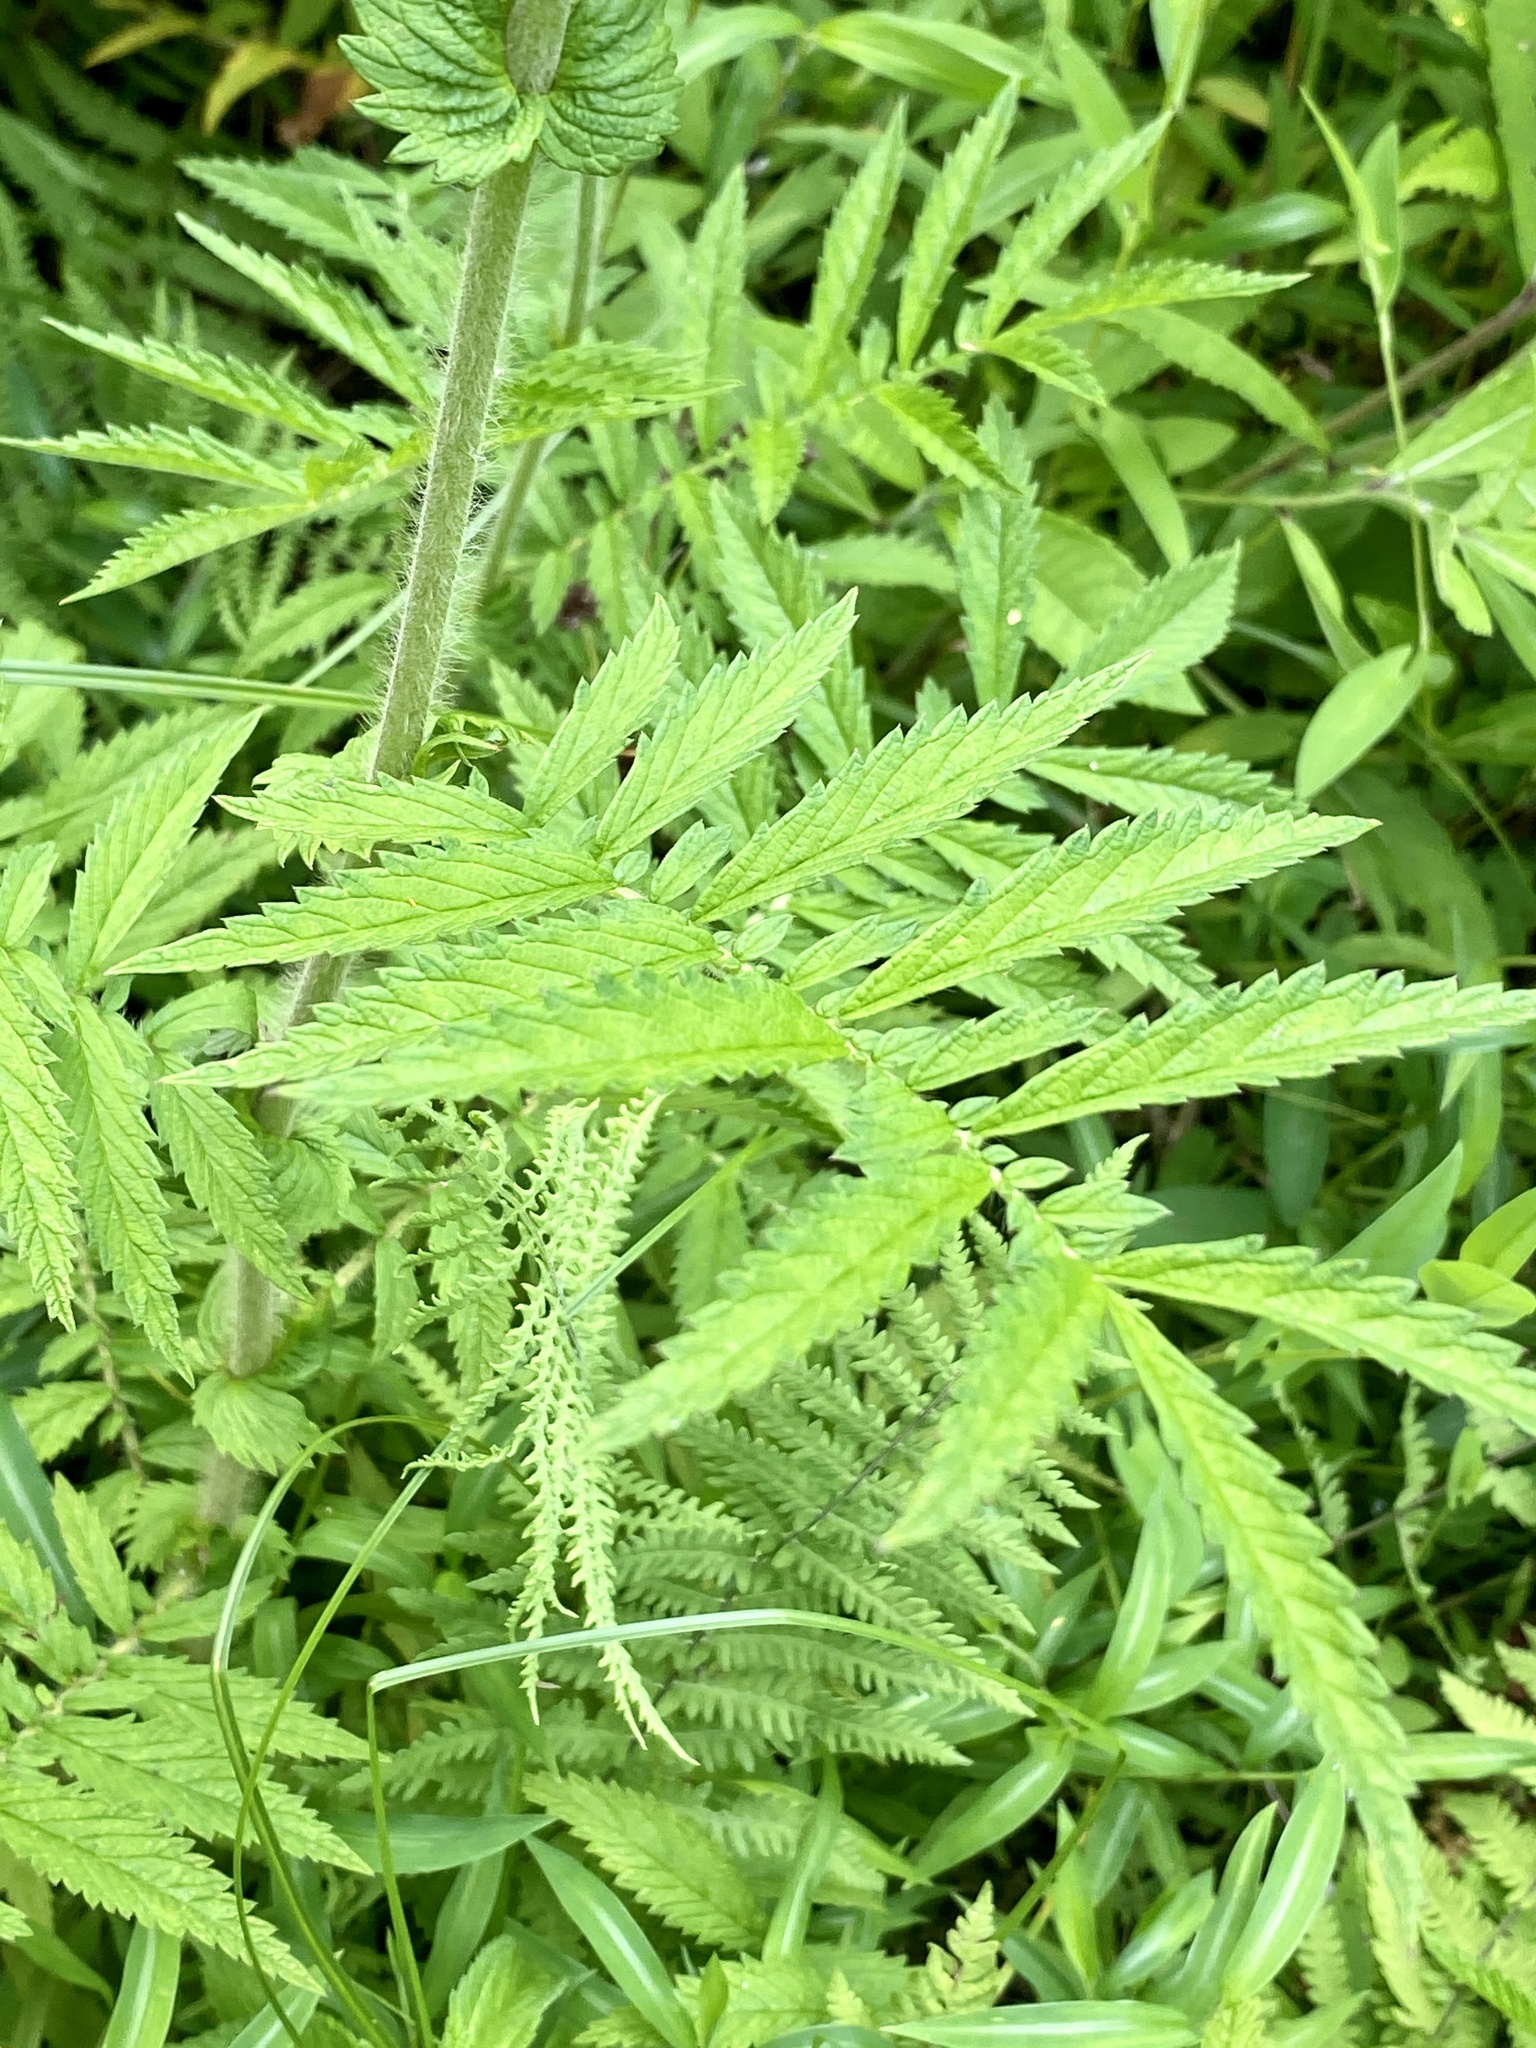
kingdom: Plantae
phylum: Tracheophyta
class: Magnoliopsida
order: Rosales
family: Rosaceae
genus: Agrimonia
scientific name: Agrimonia parviflora
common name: Harvest-lice
